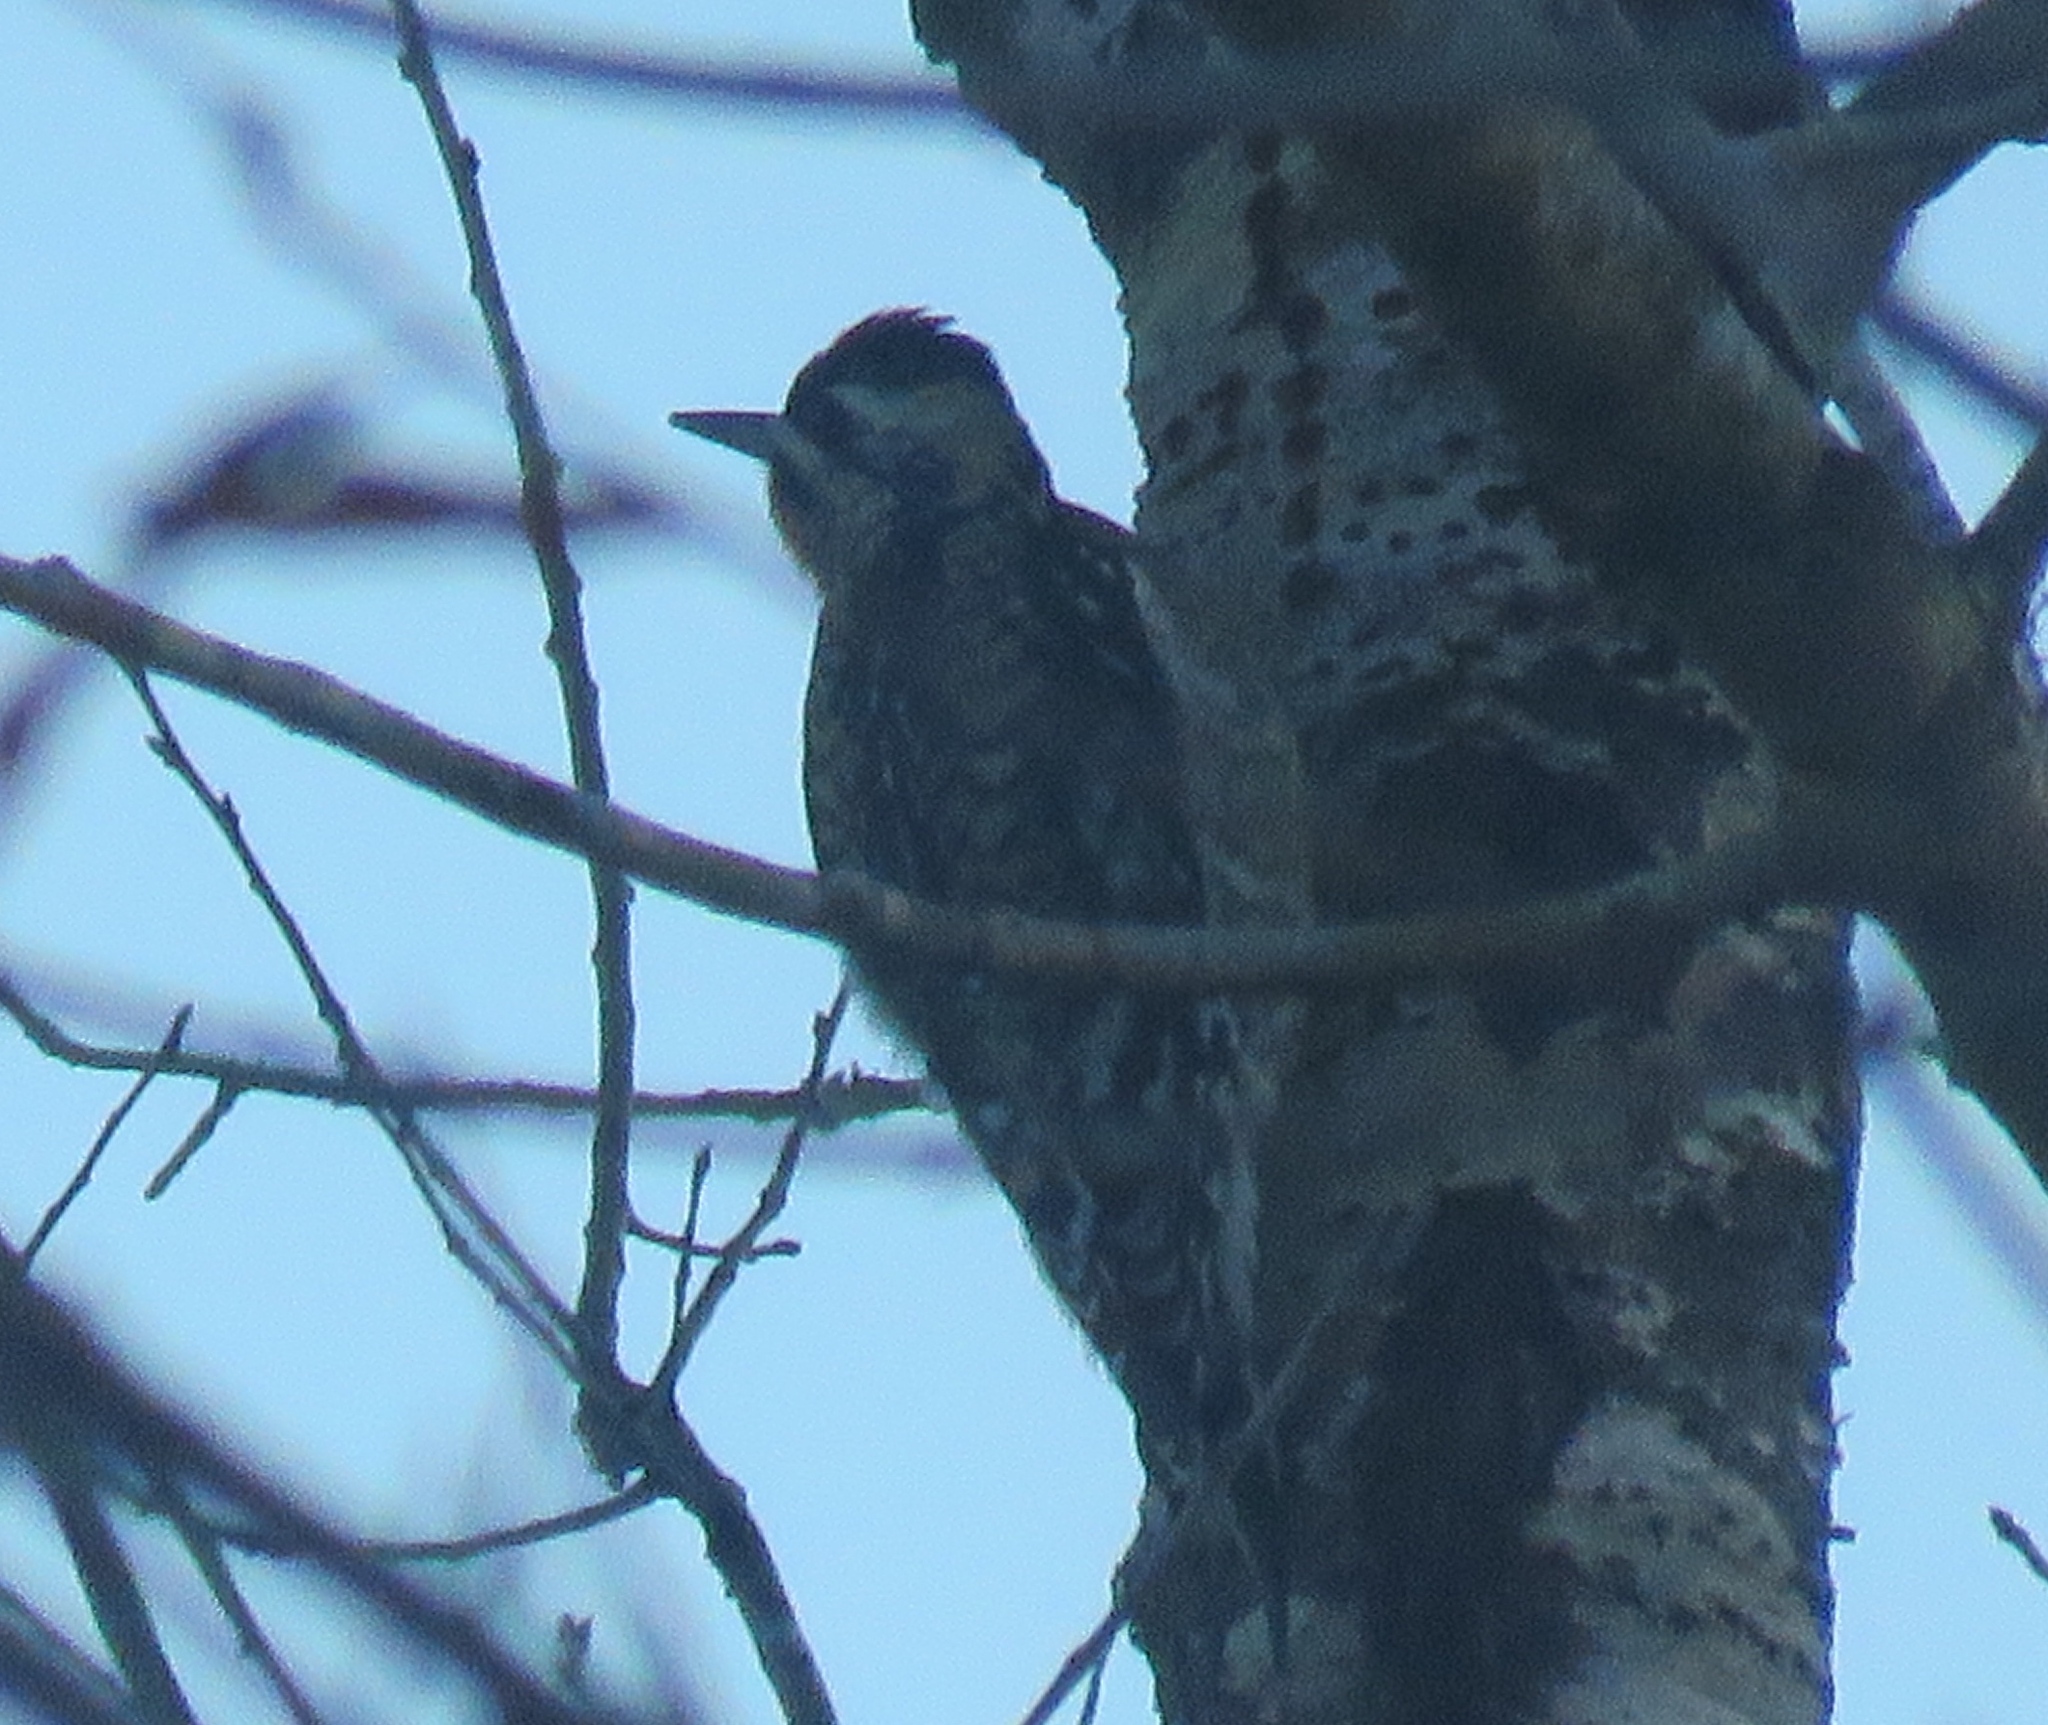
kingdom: Animalia
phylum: Chordata
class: Aves
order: Piciformes
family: Picidae
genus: Sphyrapicus
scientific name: Sphyrapicus varius
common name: Yellow-bellied sapsucker
